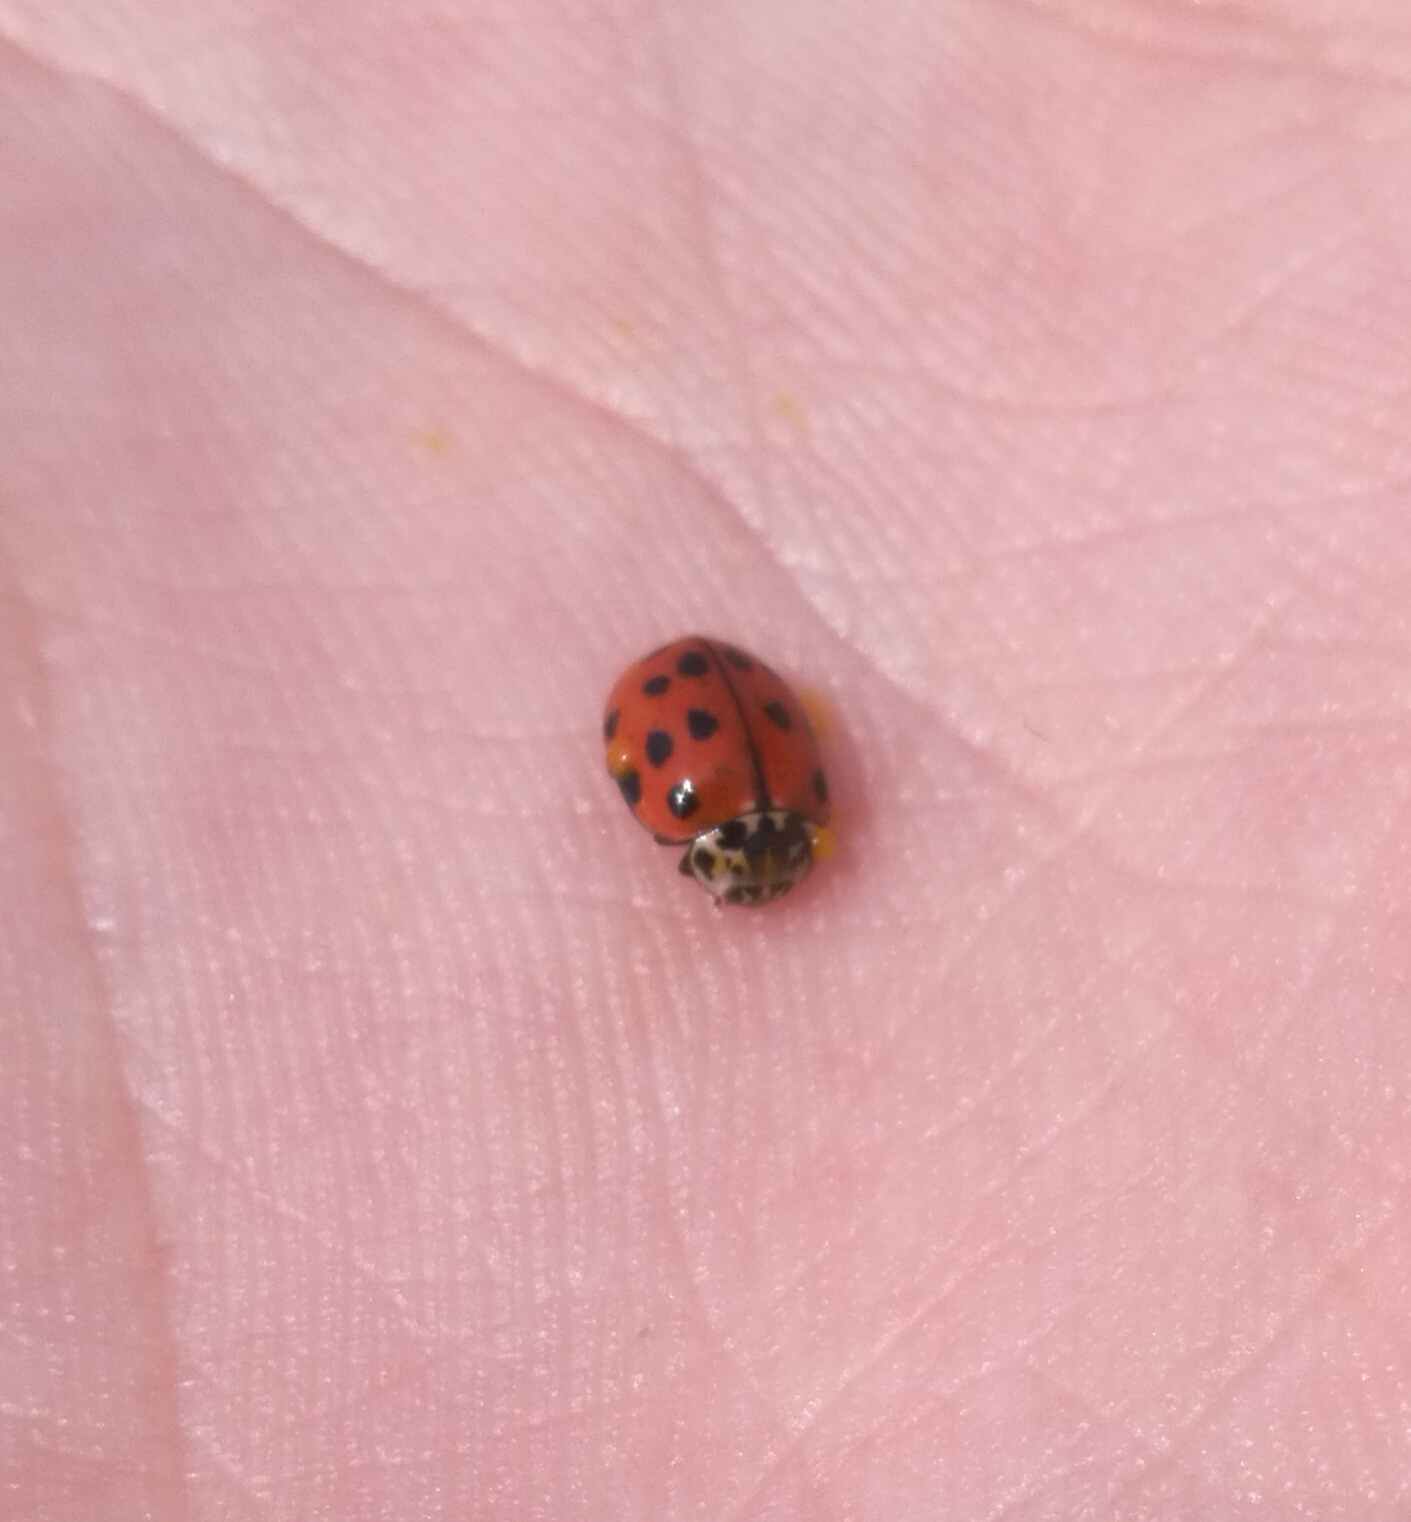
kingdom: Animalia
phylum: Arthropoda
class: Insecta
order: Coleoptera
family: Coccinellidae
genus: Harmonia
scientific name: Harmonia quadripunctata
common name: Cream-streaked ladybird
